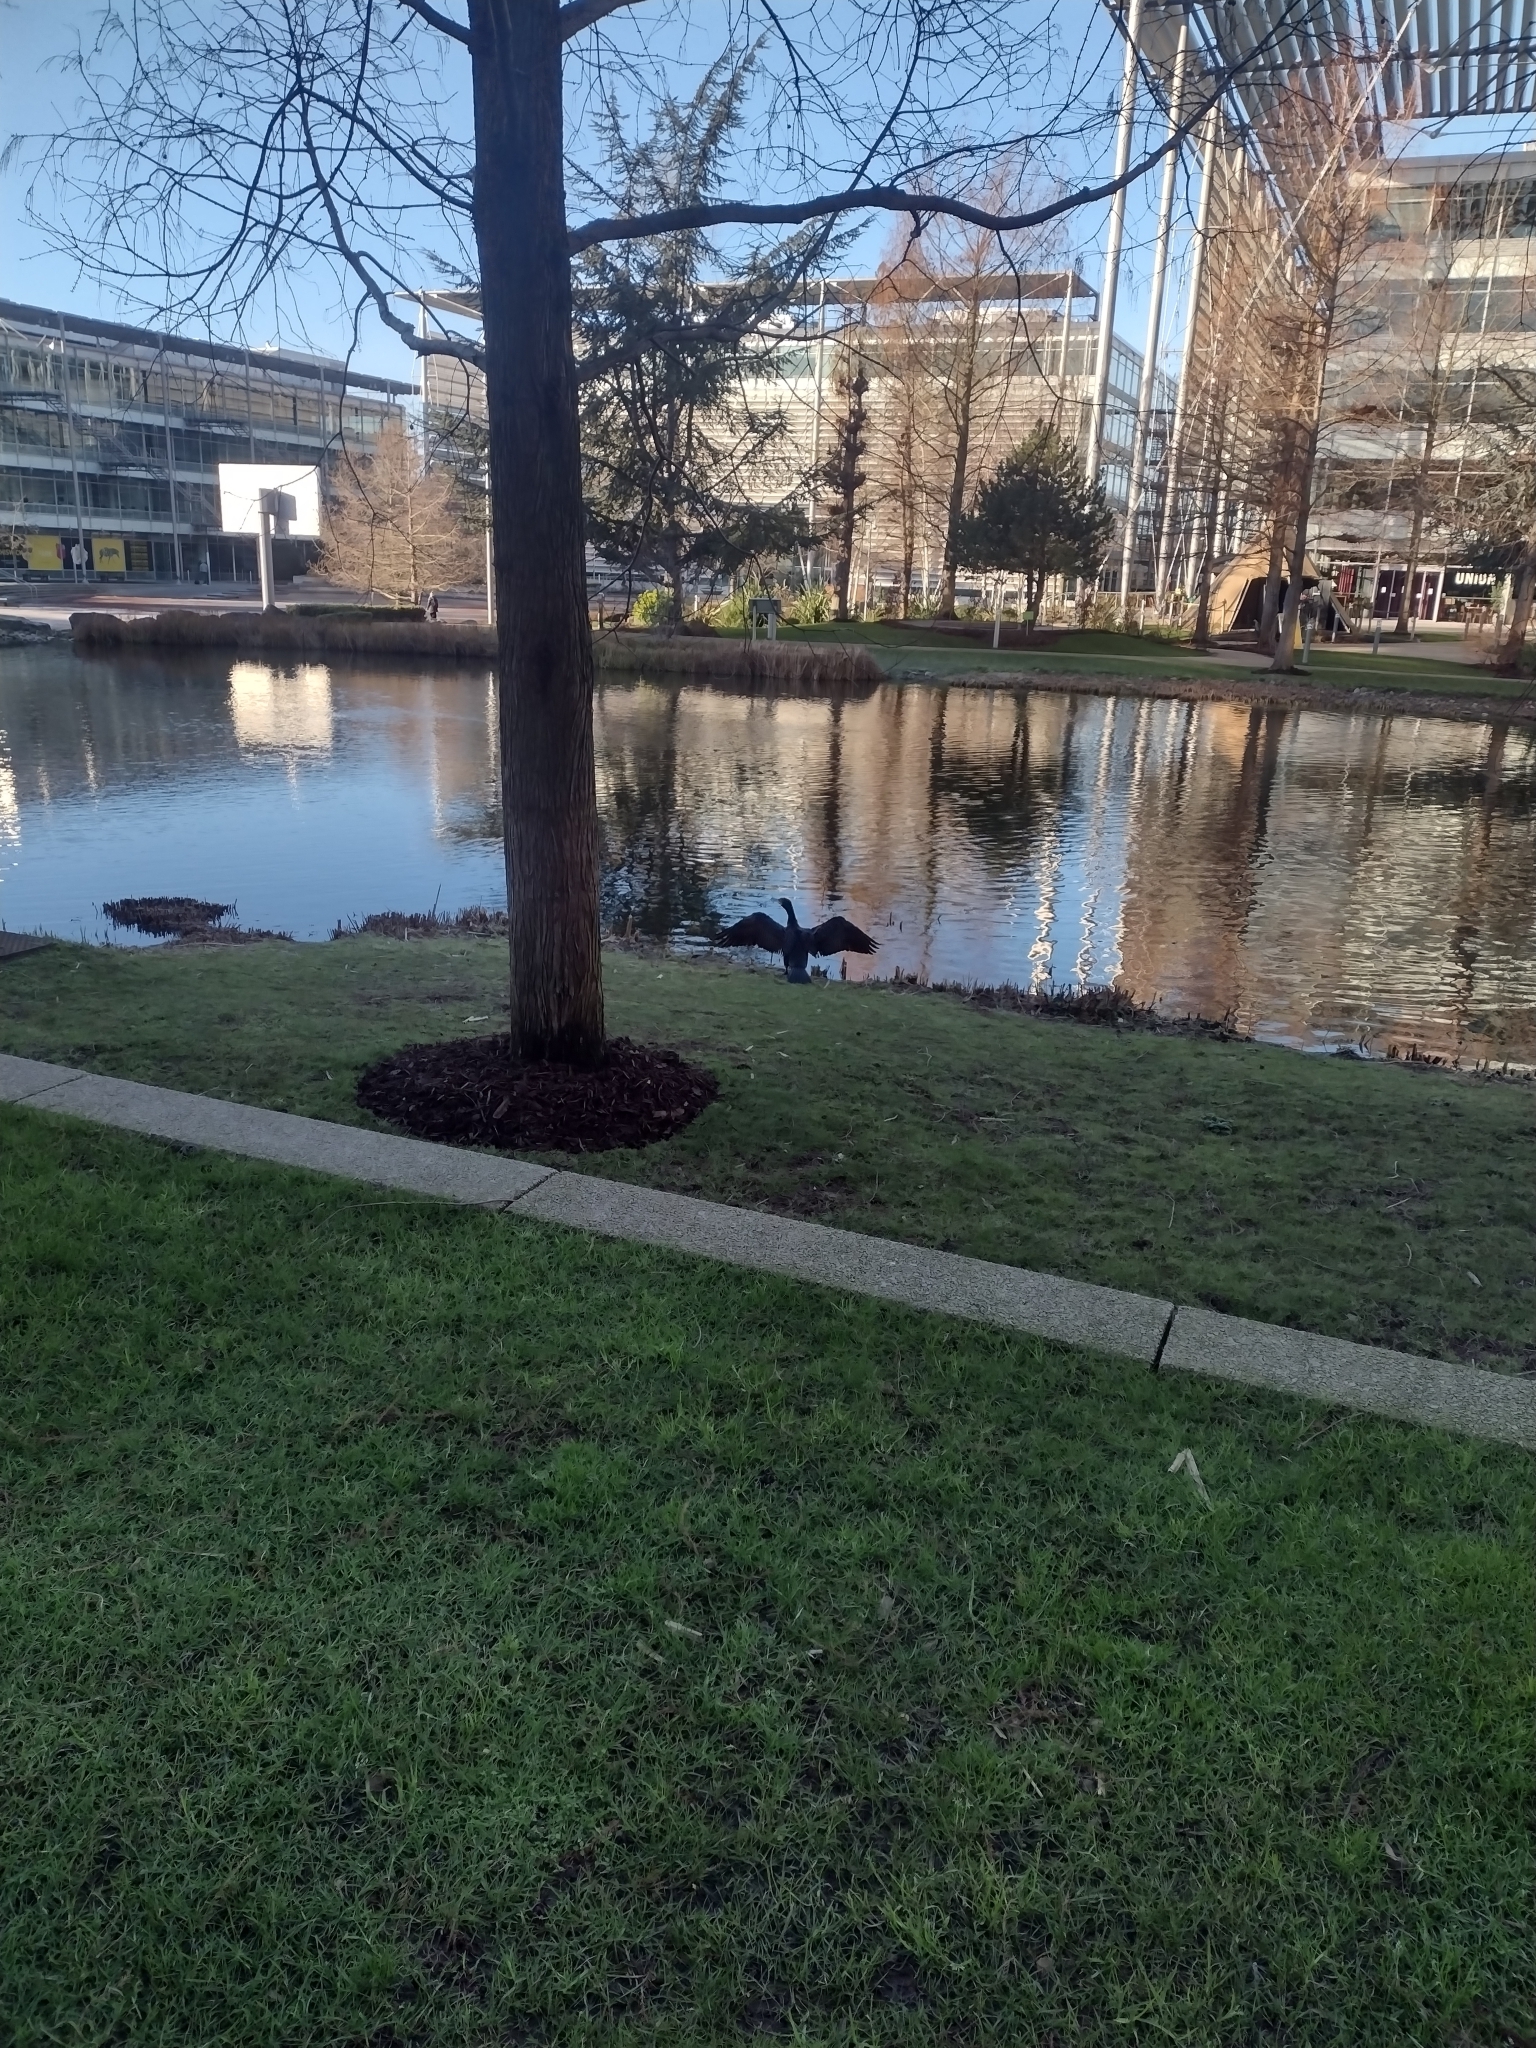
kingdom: Animalia
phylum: Chordata
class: Aves
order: Suliformes
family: Phalacrocoracidae
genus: Phalacrocorax
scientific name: Phalacrocorax carbo
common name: Great cormorant
